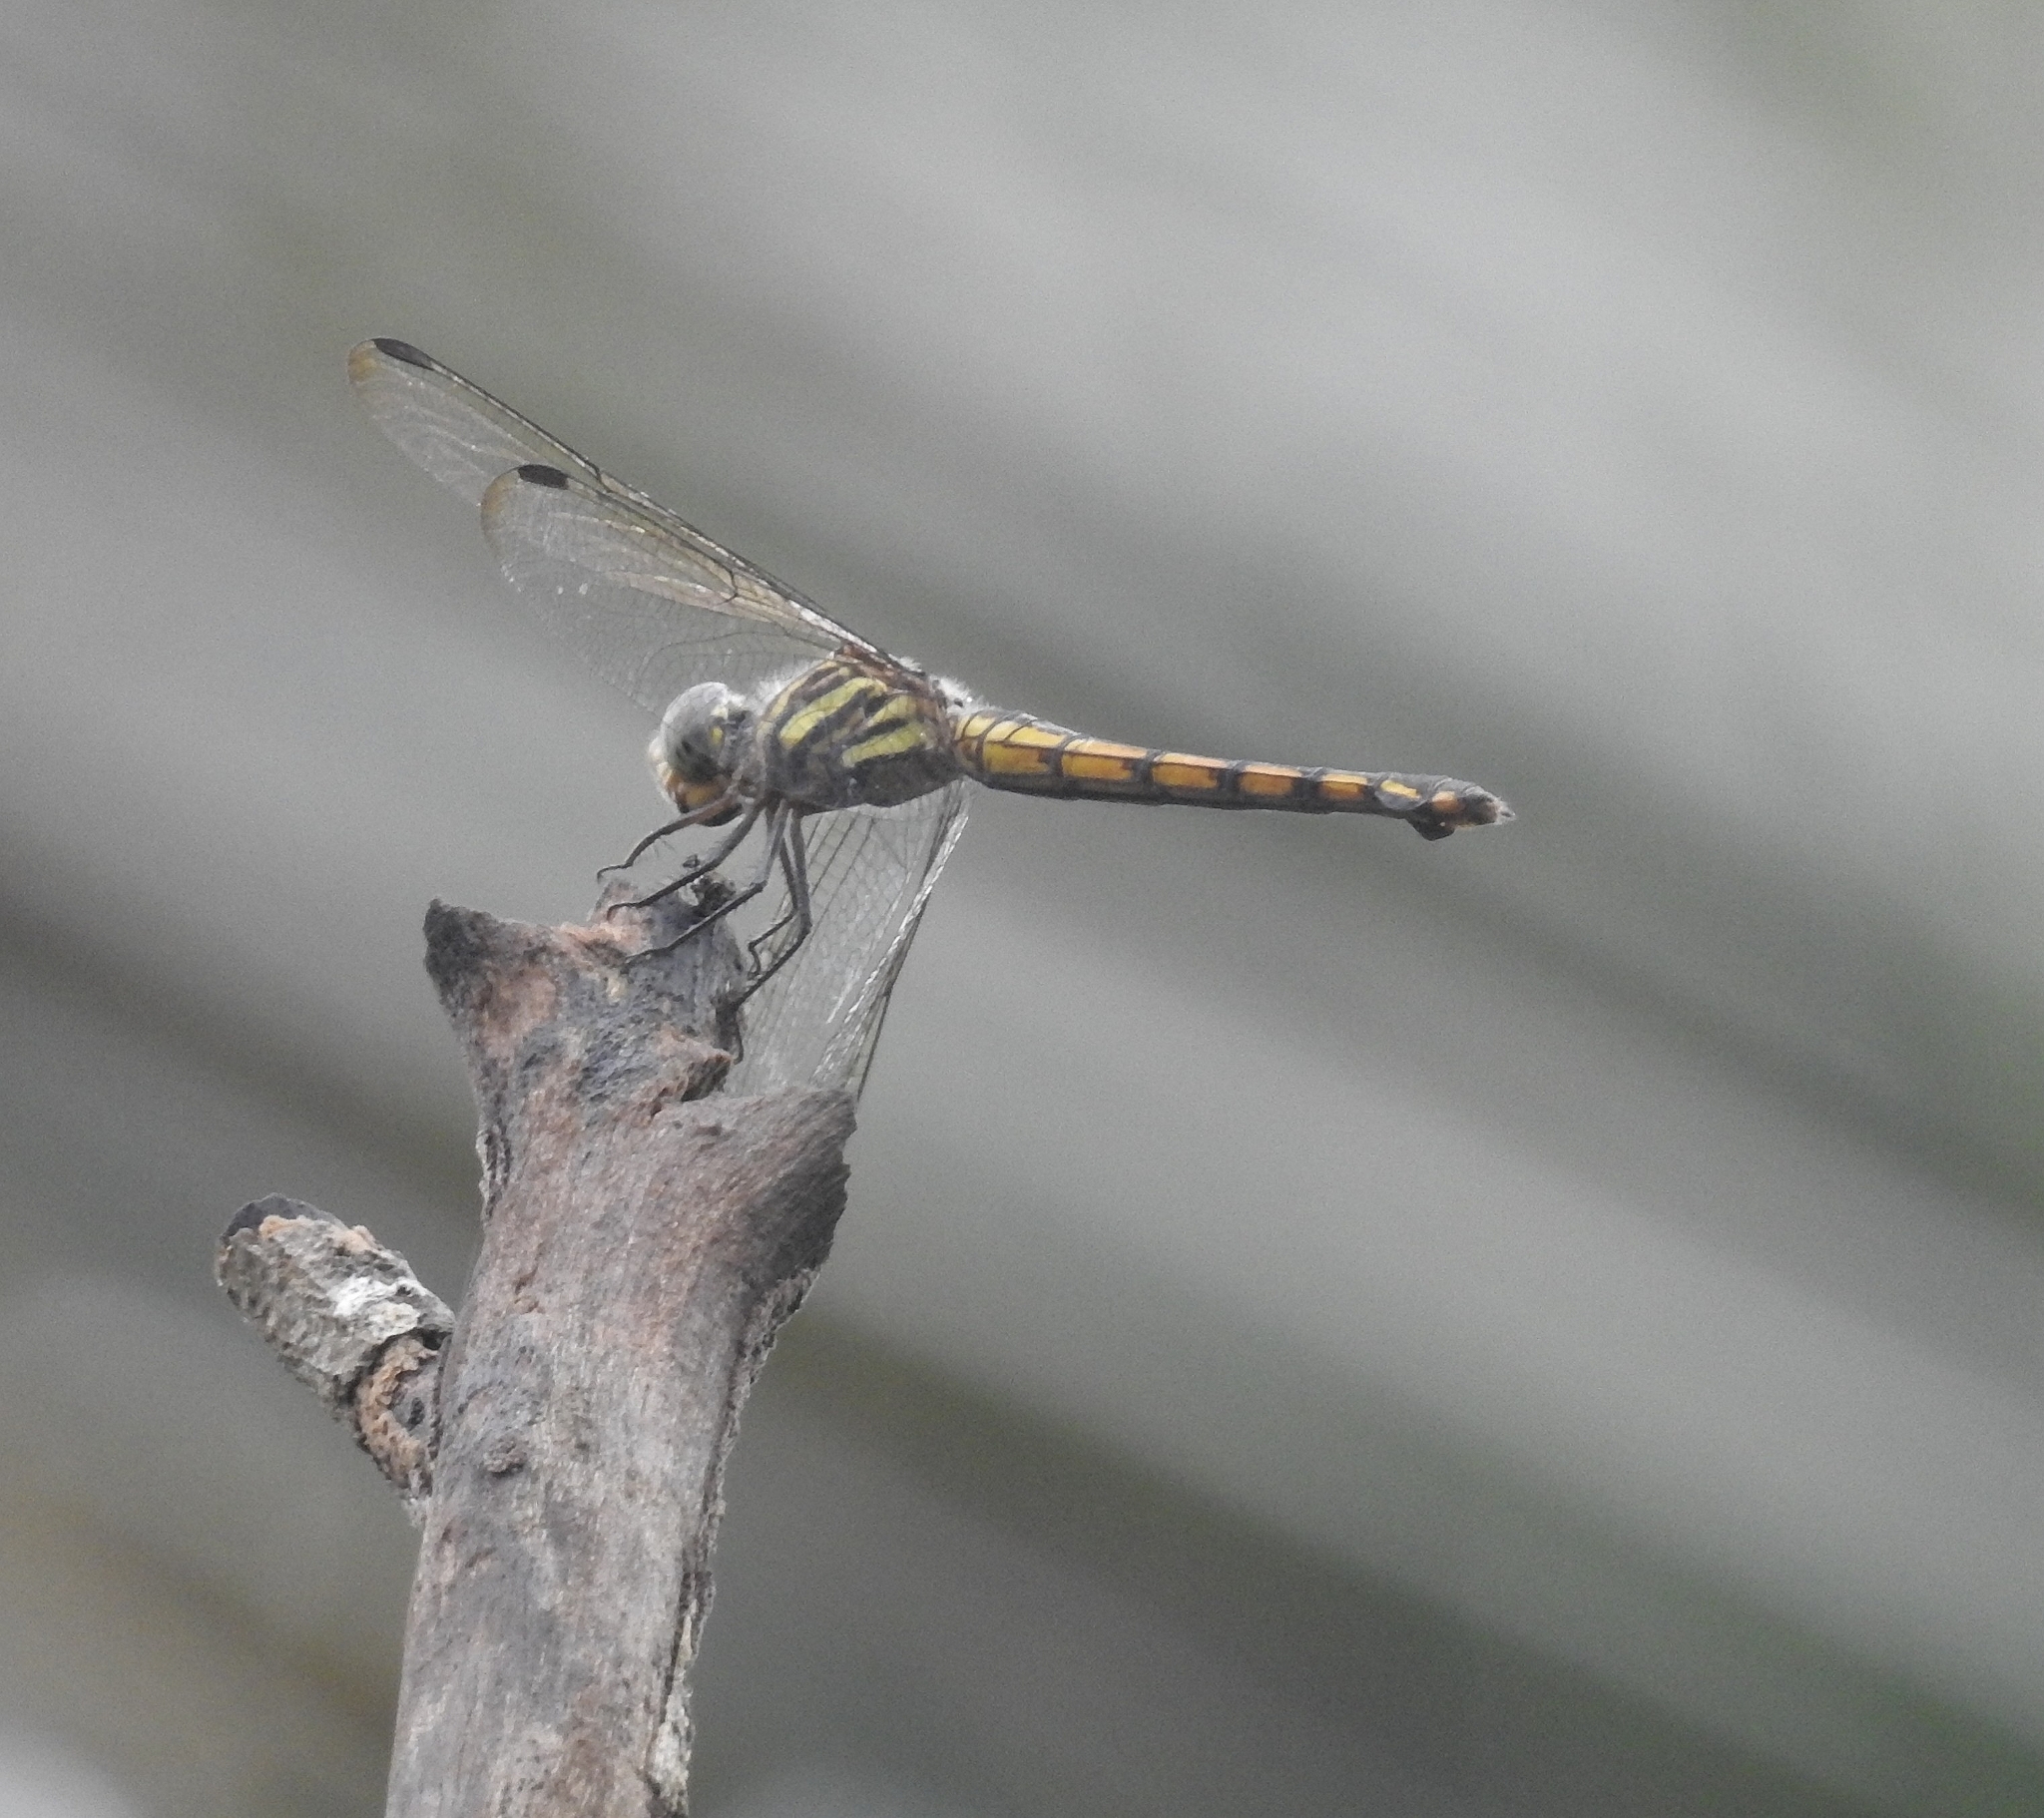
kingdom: Animalia
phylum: Arthropoda
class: Insecta
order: Odonata
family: Libellulidae
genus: Potamarcha
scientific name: Potamarcha congener
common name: Blue chaser
